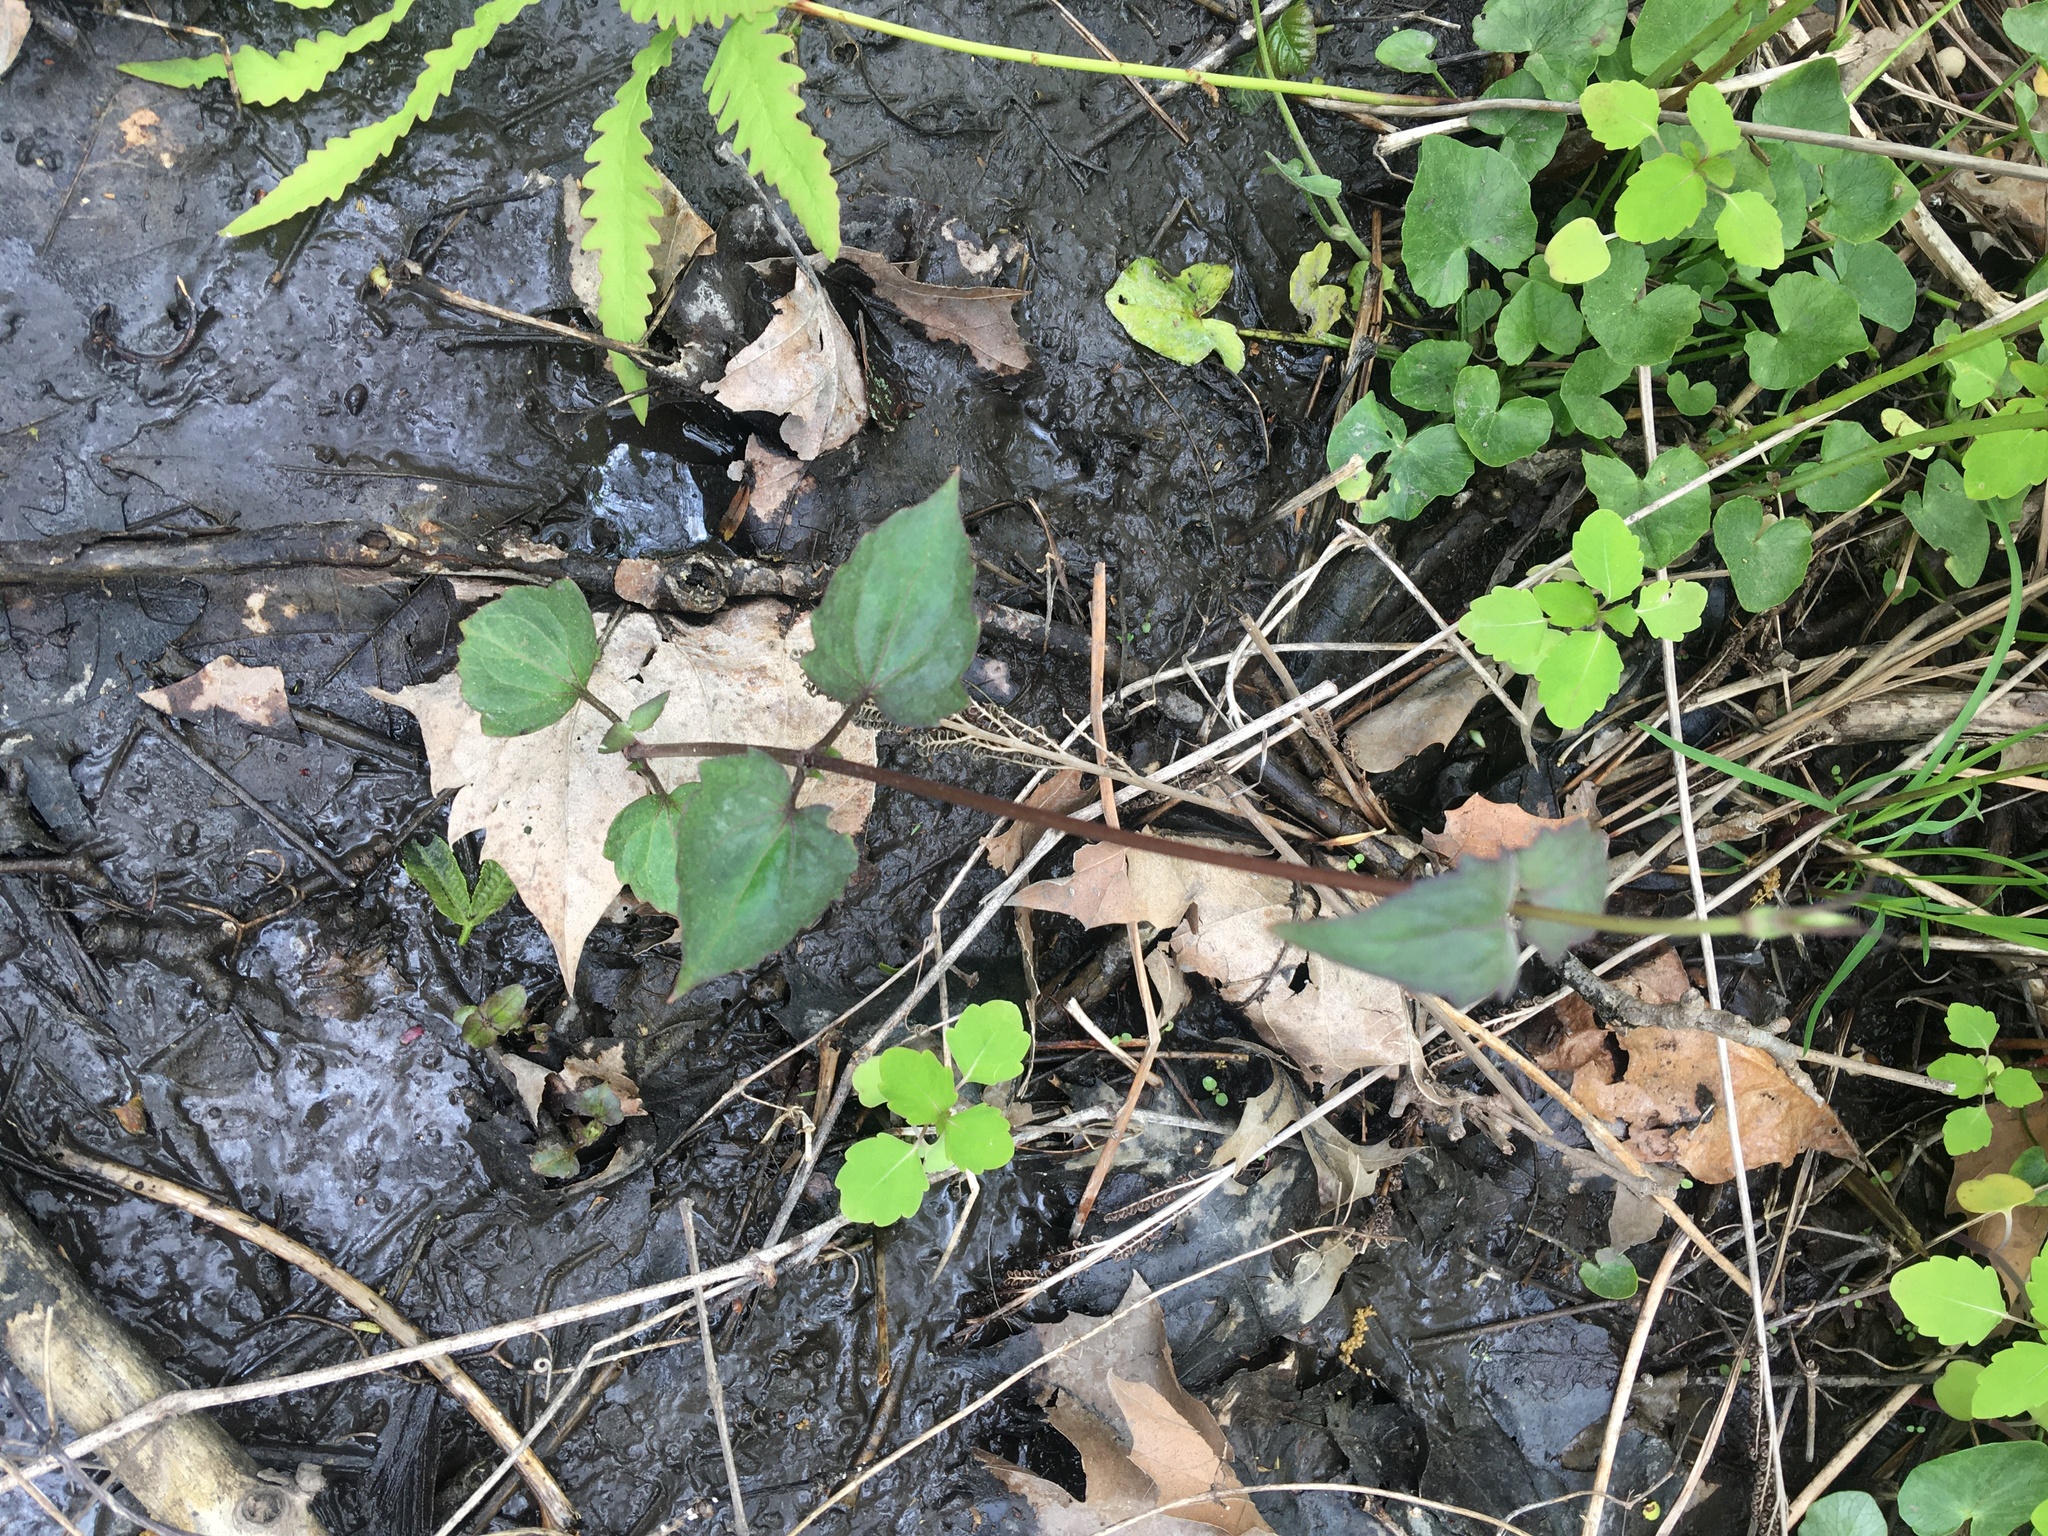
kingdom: Plantae
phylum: Tracheophyta
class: Magnoliopsida
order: Asterales
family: Asteraceae
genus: Mikania
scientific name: Mikania scandens
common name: Climbing hempvine
